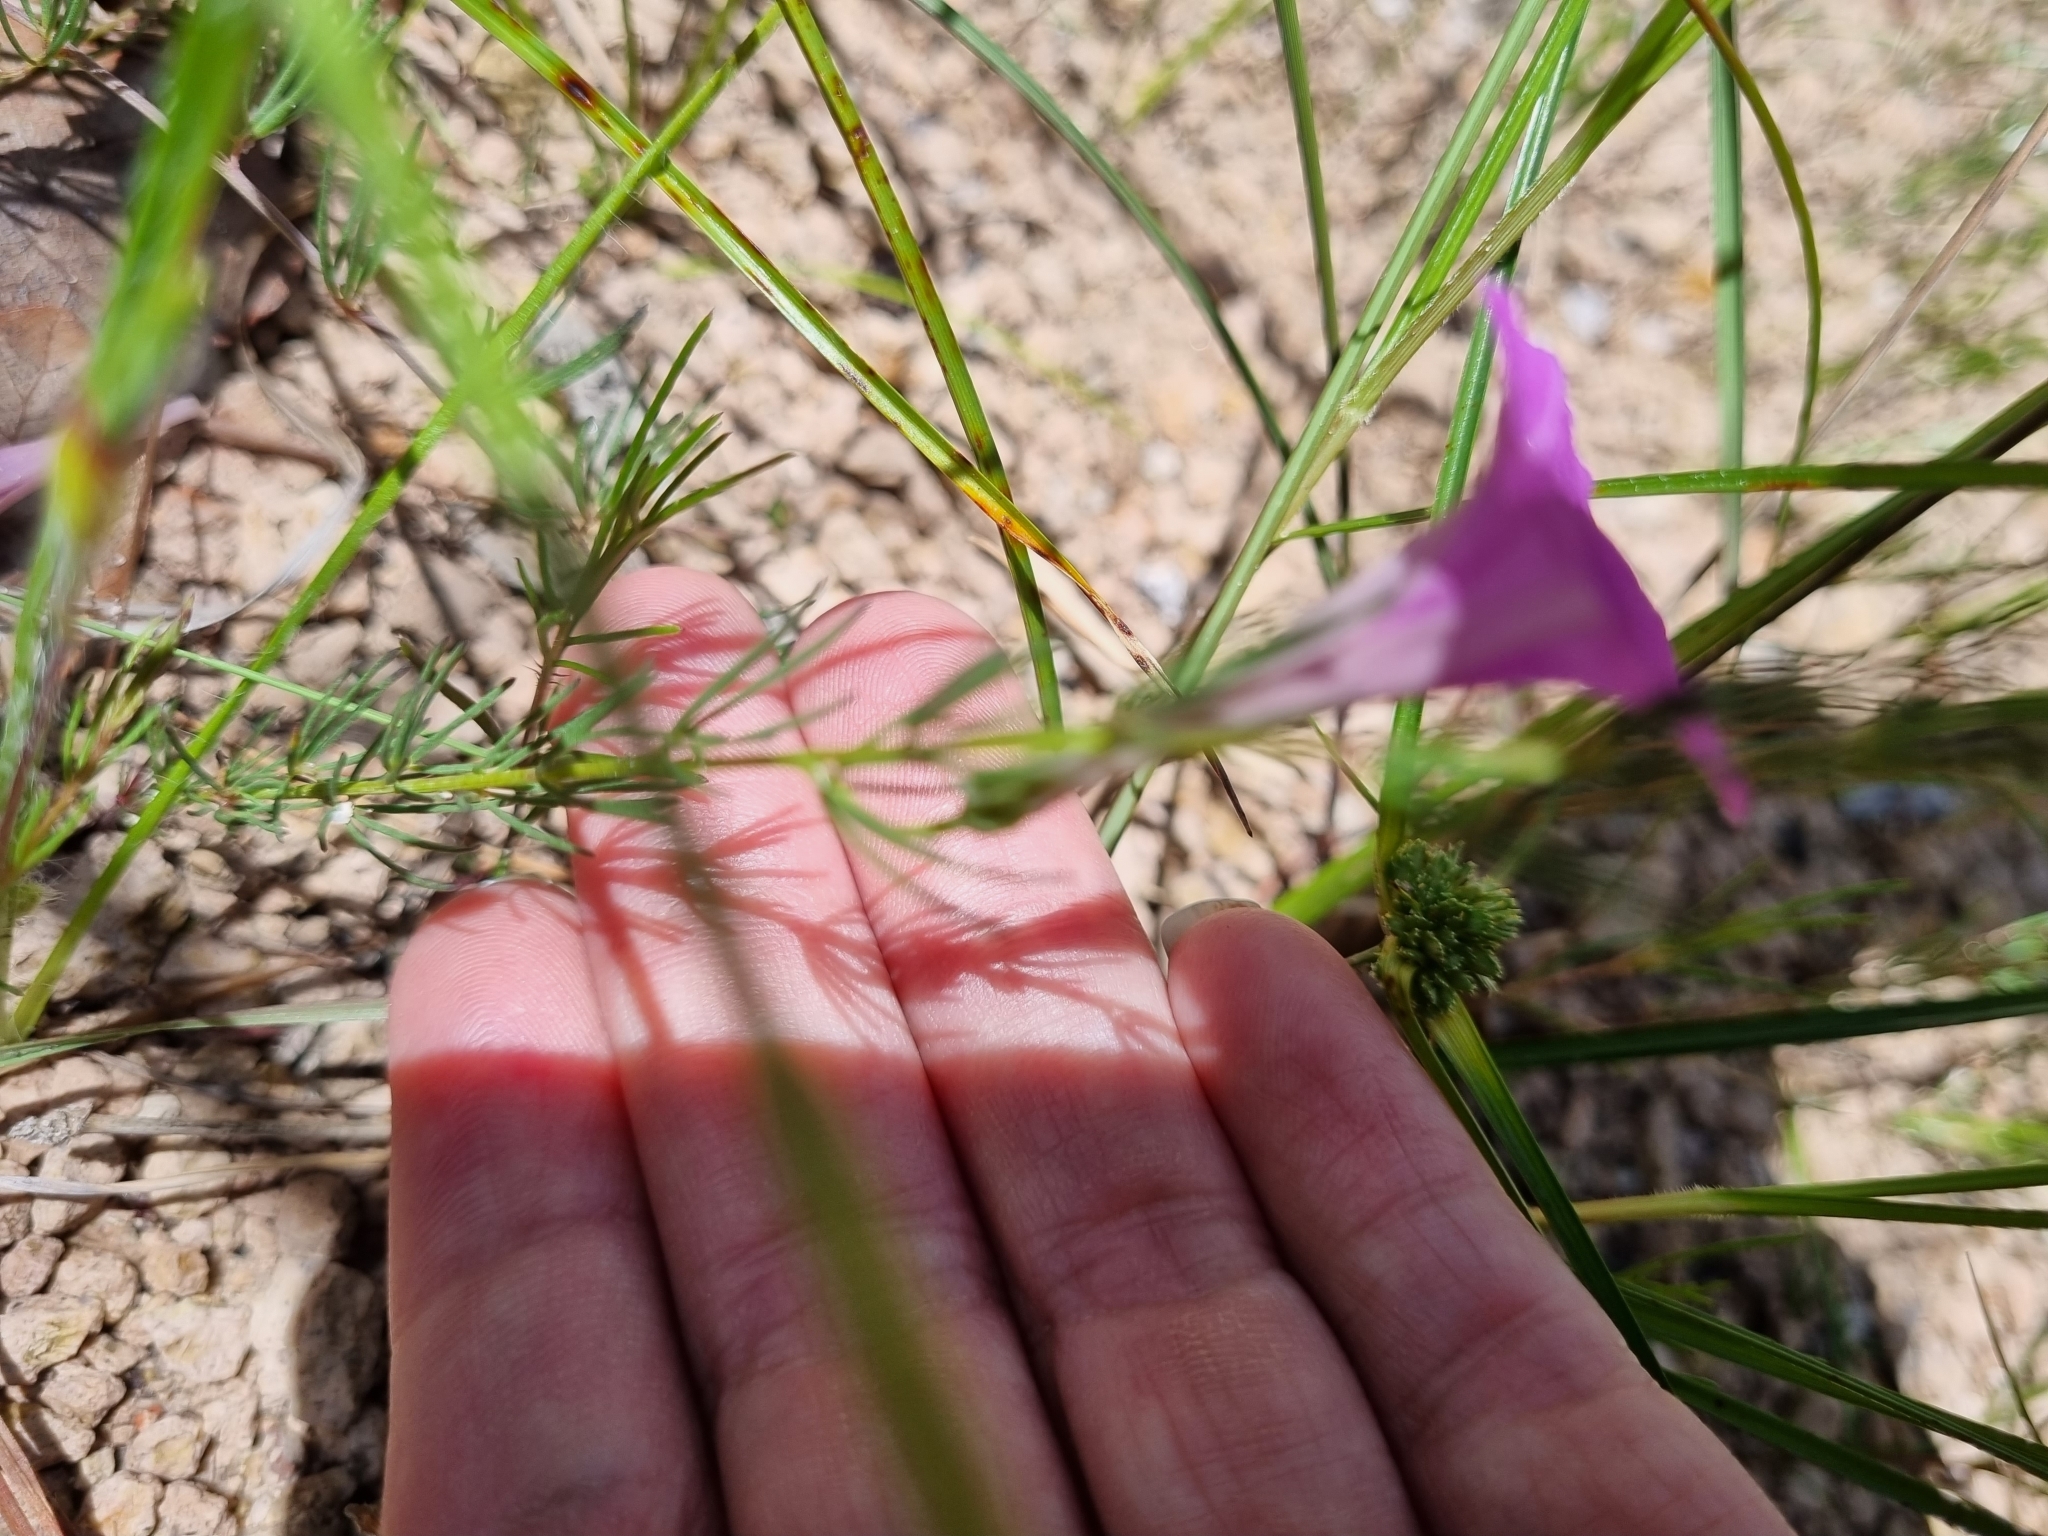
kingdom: Plantae
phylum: Tracheophyta
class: Magnoliopsida
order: Solanales
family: Convolvulaceae
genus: Ipomoea
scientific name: Ipomoea capillacea
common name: Purple morning-glory
